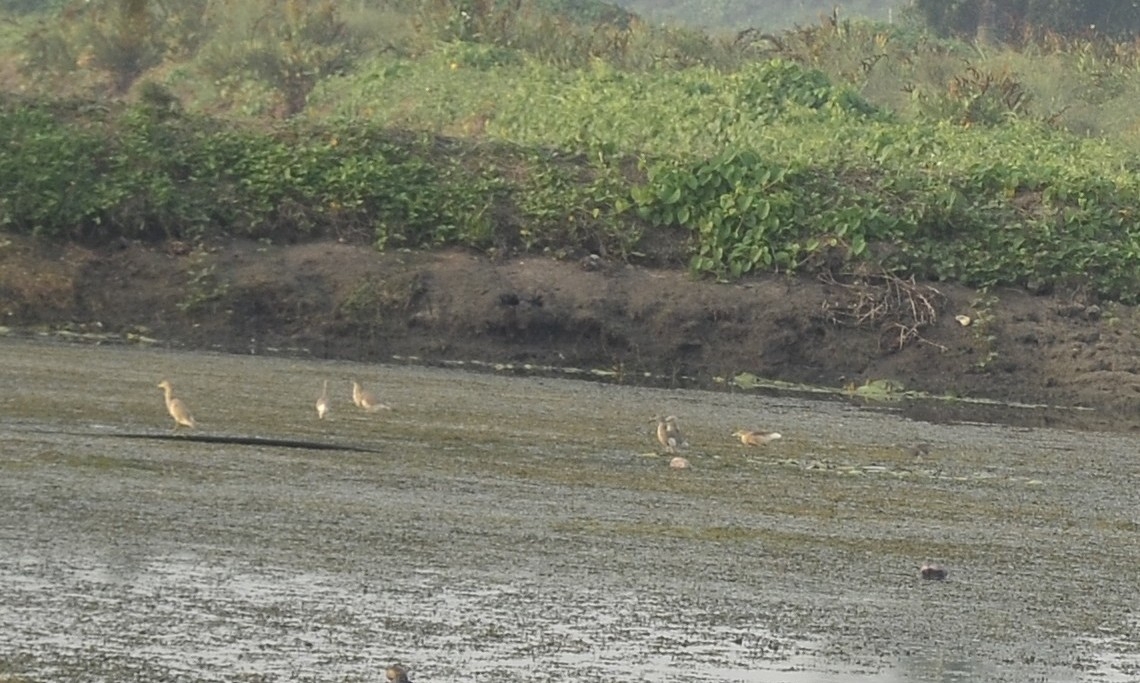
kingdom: Animalia
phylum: Chordata
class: Aves
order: Pelecaniformes
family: Ardeidae
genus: Ardeola
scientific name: Ardeola grayii
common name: Indian pond heron
